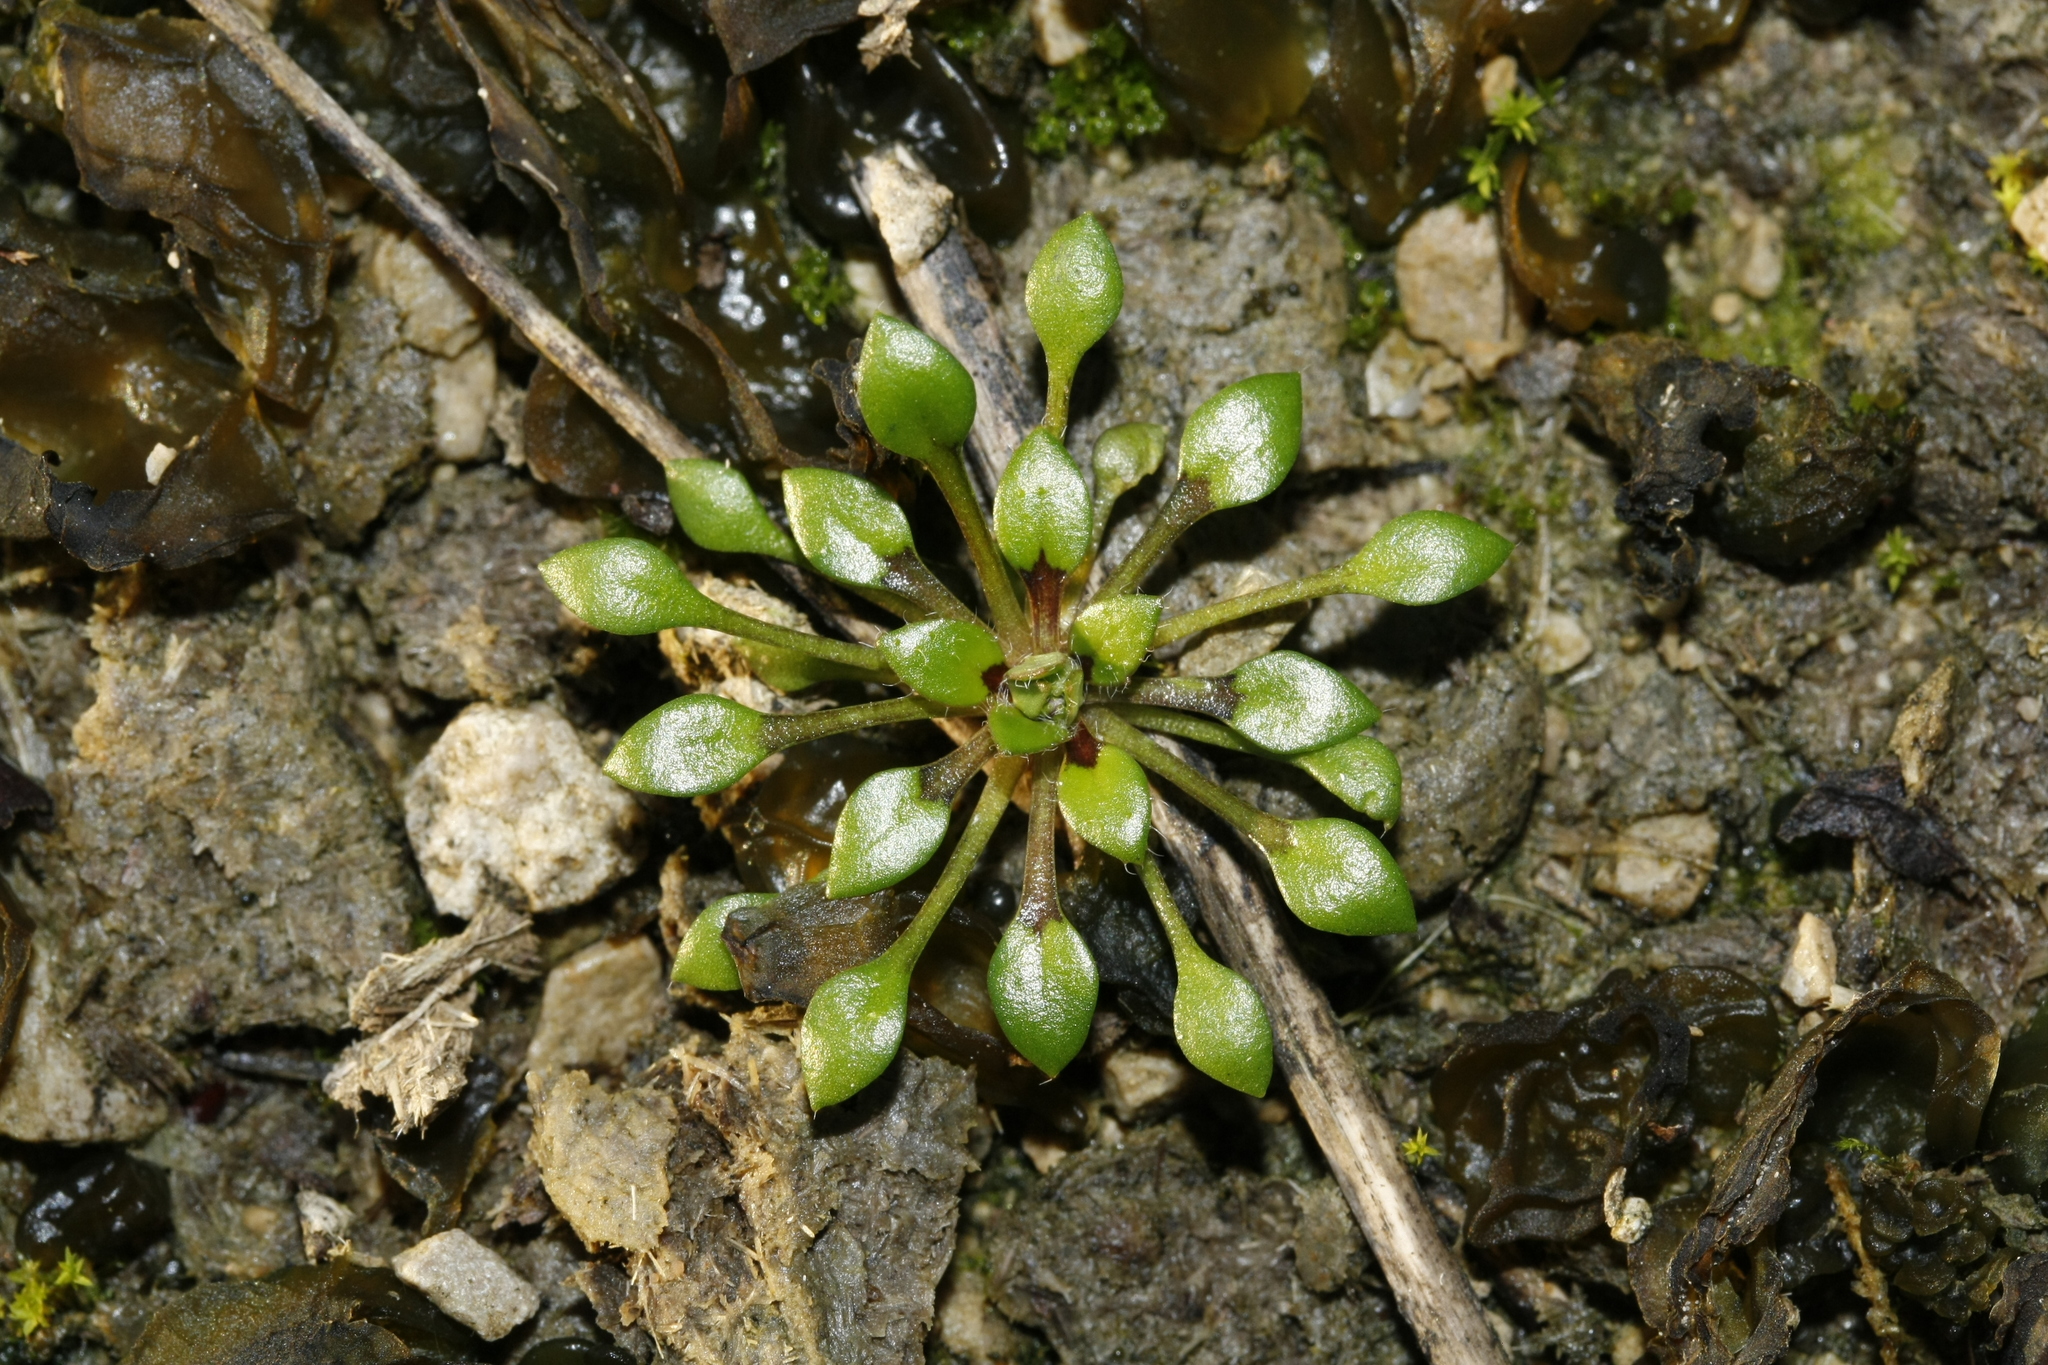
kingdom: Plantae
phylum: Tracheophyta
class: Magnoliopsida
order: Brassicales
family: Brassicaceae
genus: Draba
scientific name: Draba verna
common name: Spring draba
